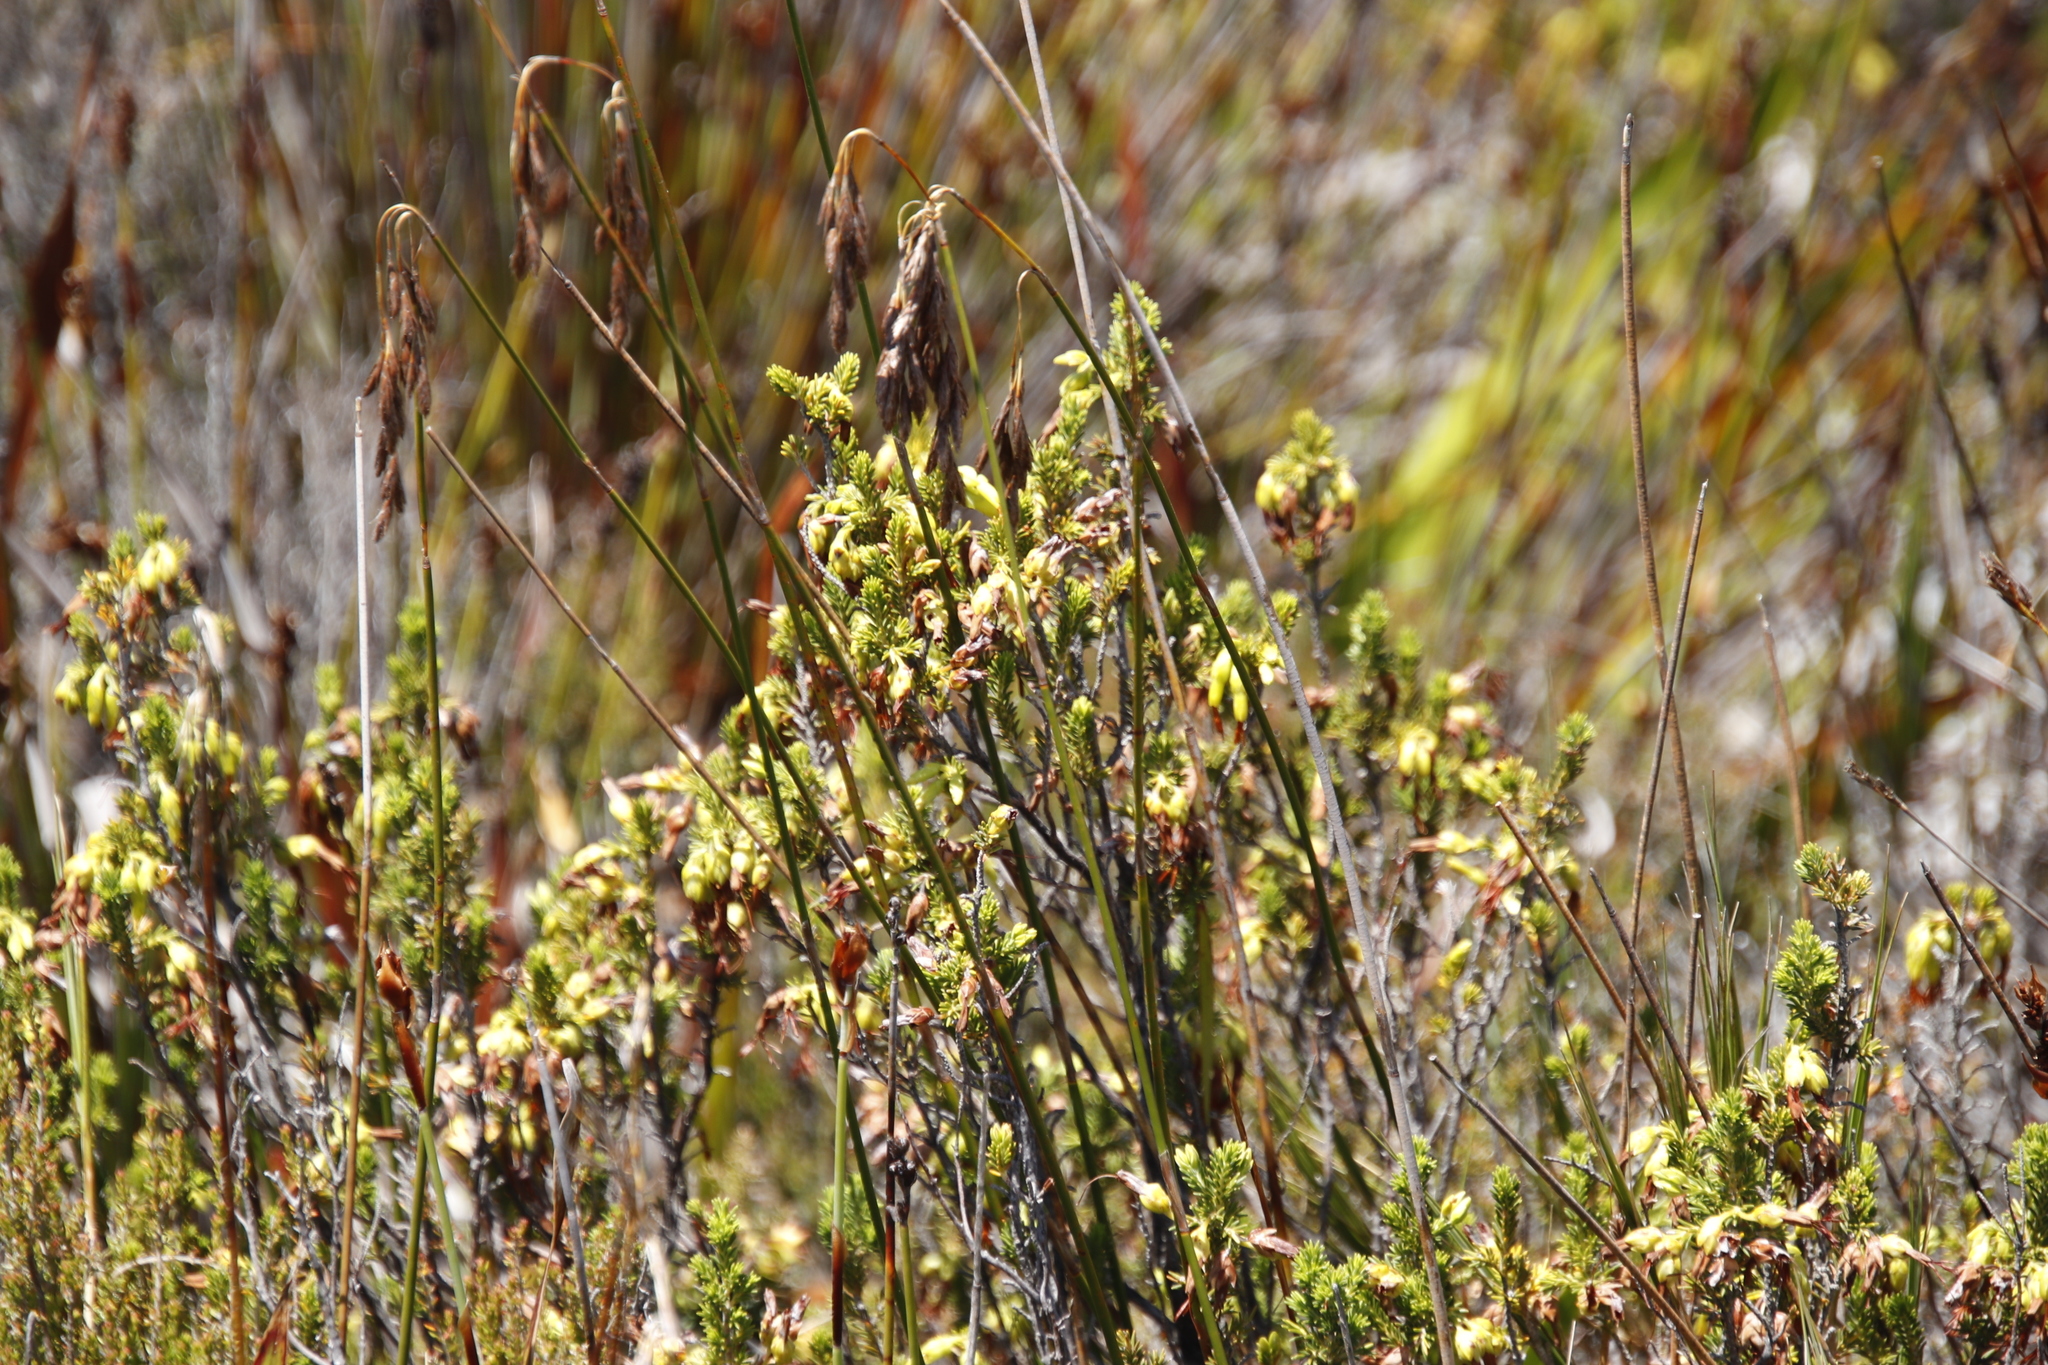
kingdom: Plantae
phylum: Tracheophyta
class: Liliopsida
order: Poales
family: Restionaceae
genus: Thamnochortus
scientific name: Thamnochortus nutans
